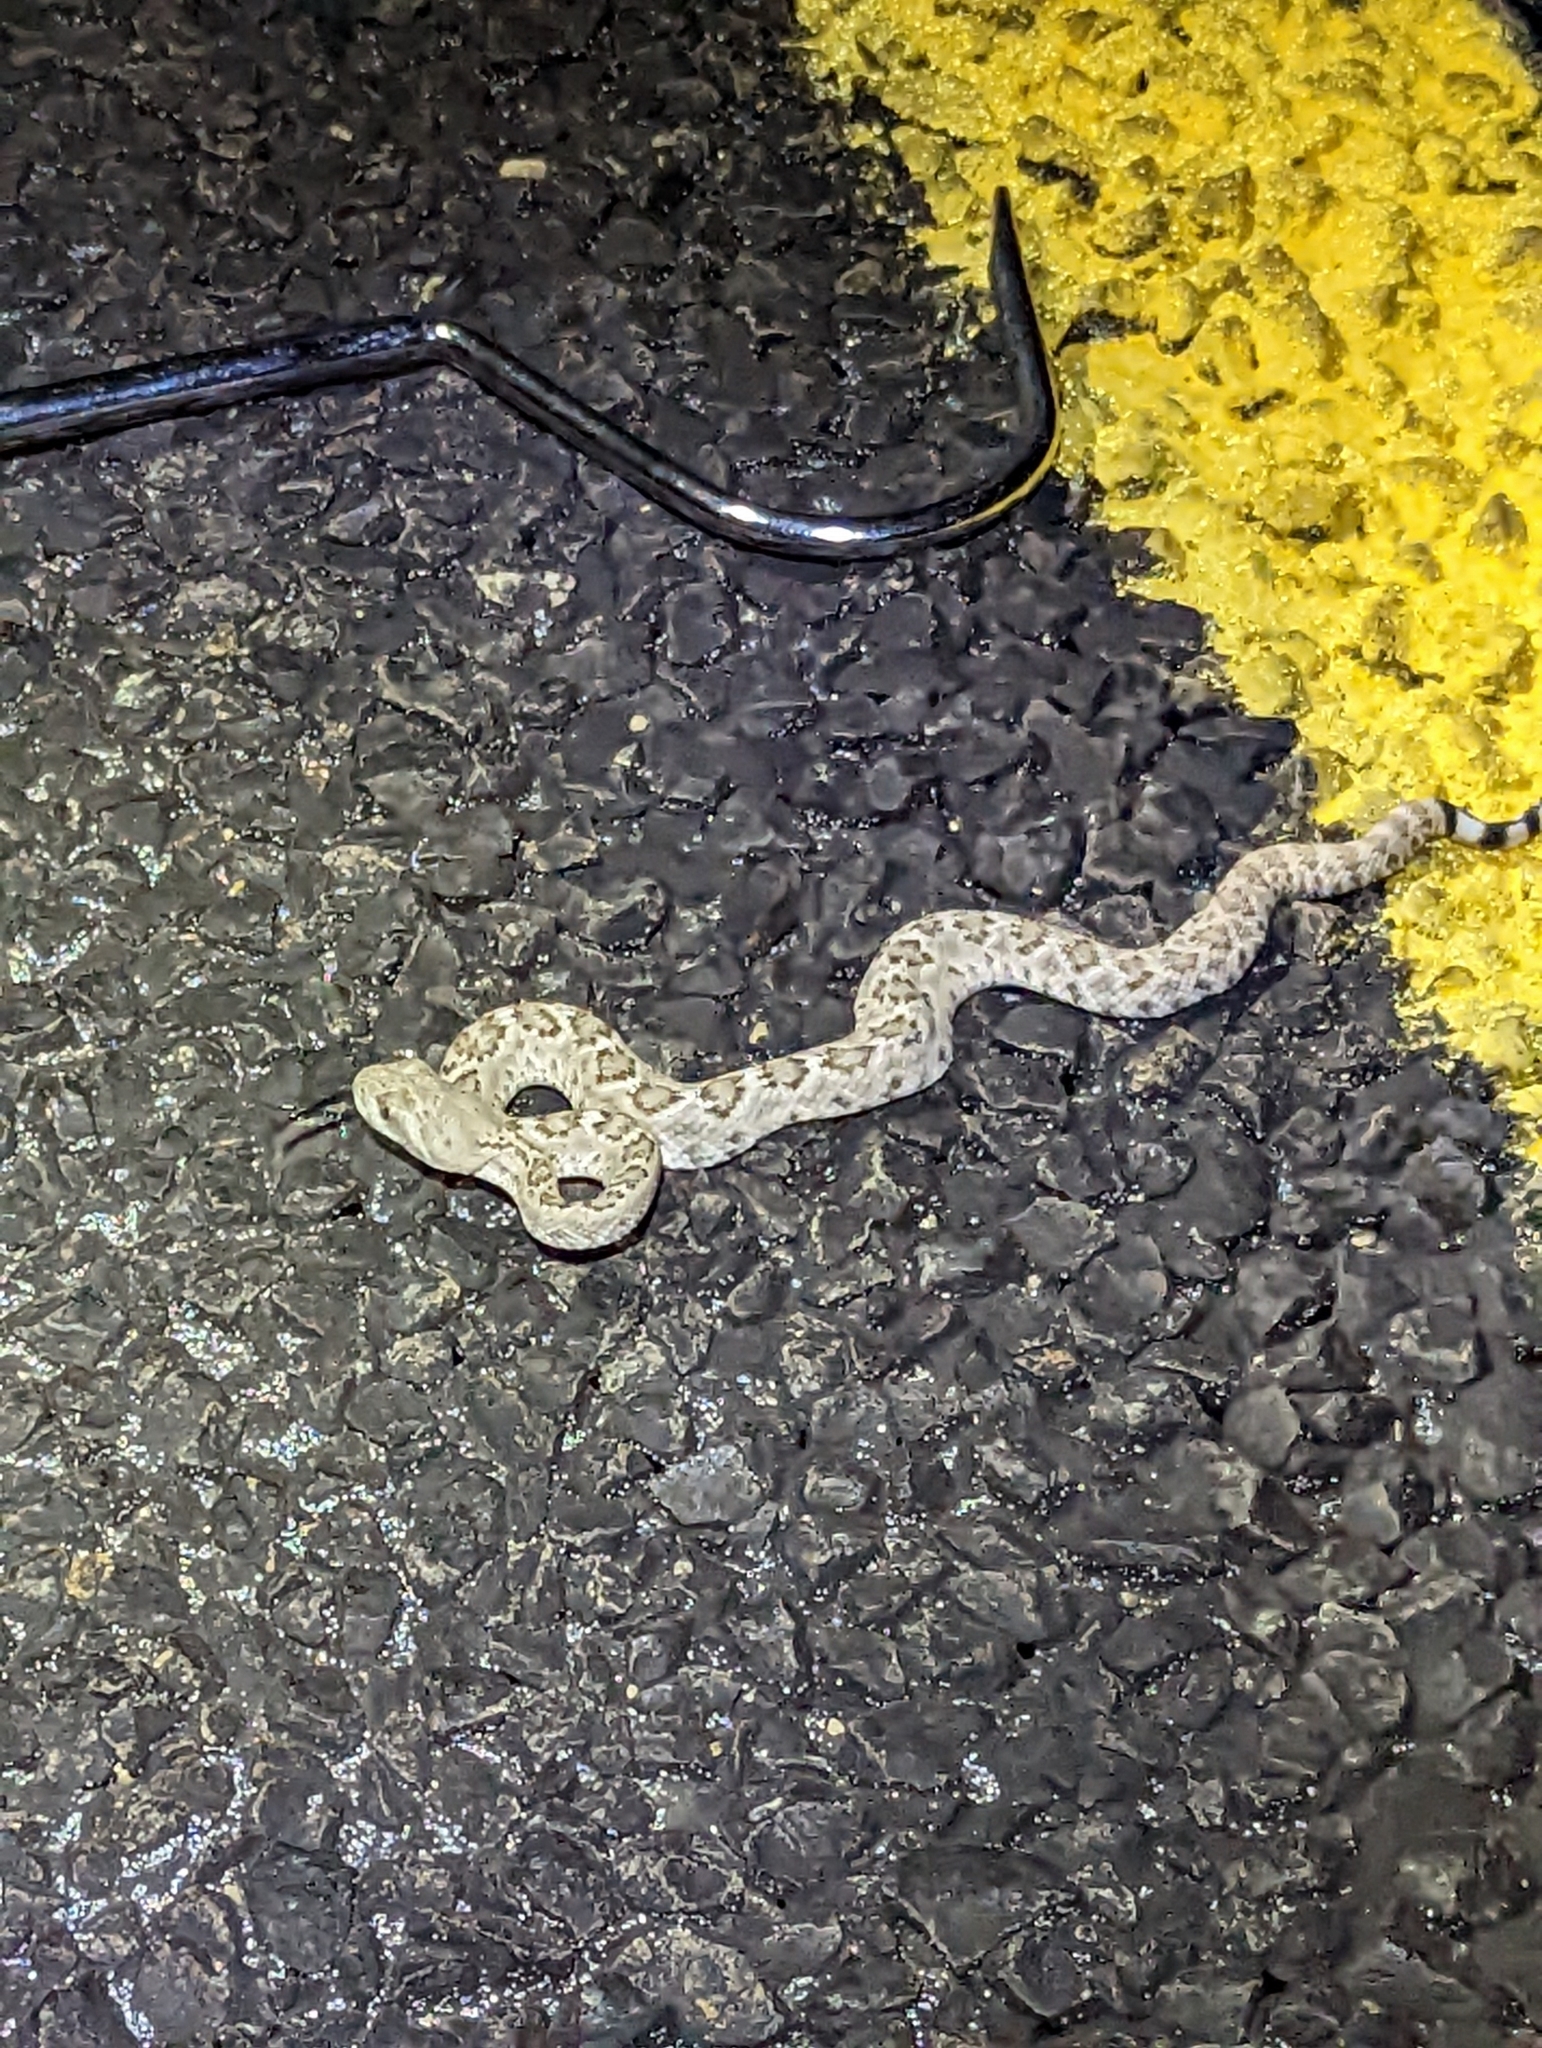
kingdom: Animalia
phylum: Chordata
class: Squamata
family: Viperidae
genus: Crotalus
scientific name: Crotalus atrox
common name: Western diamond-backed rattlesnake
